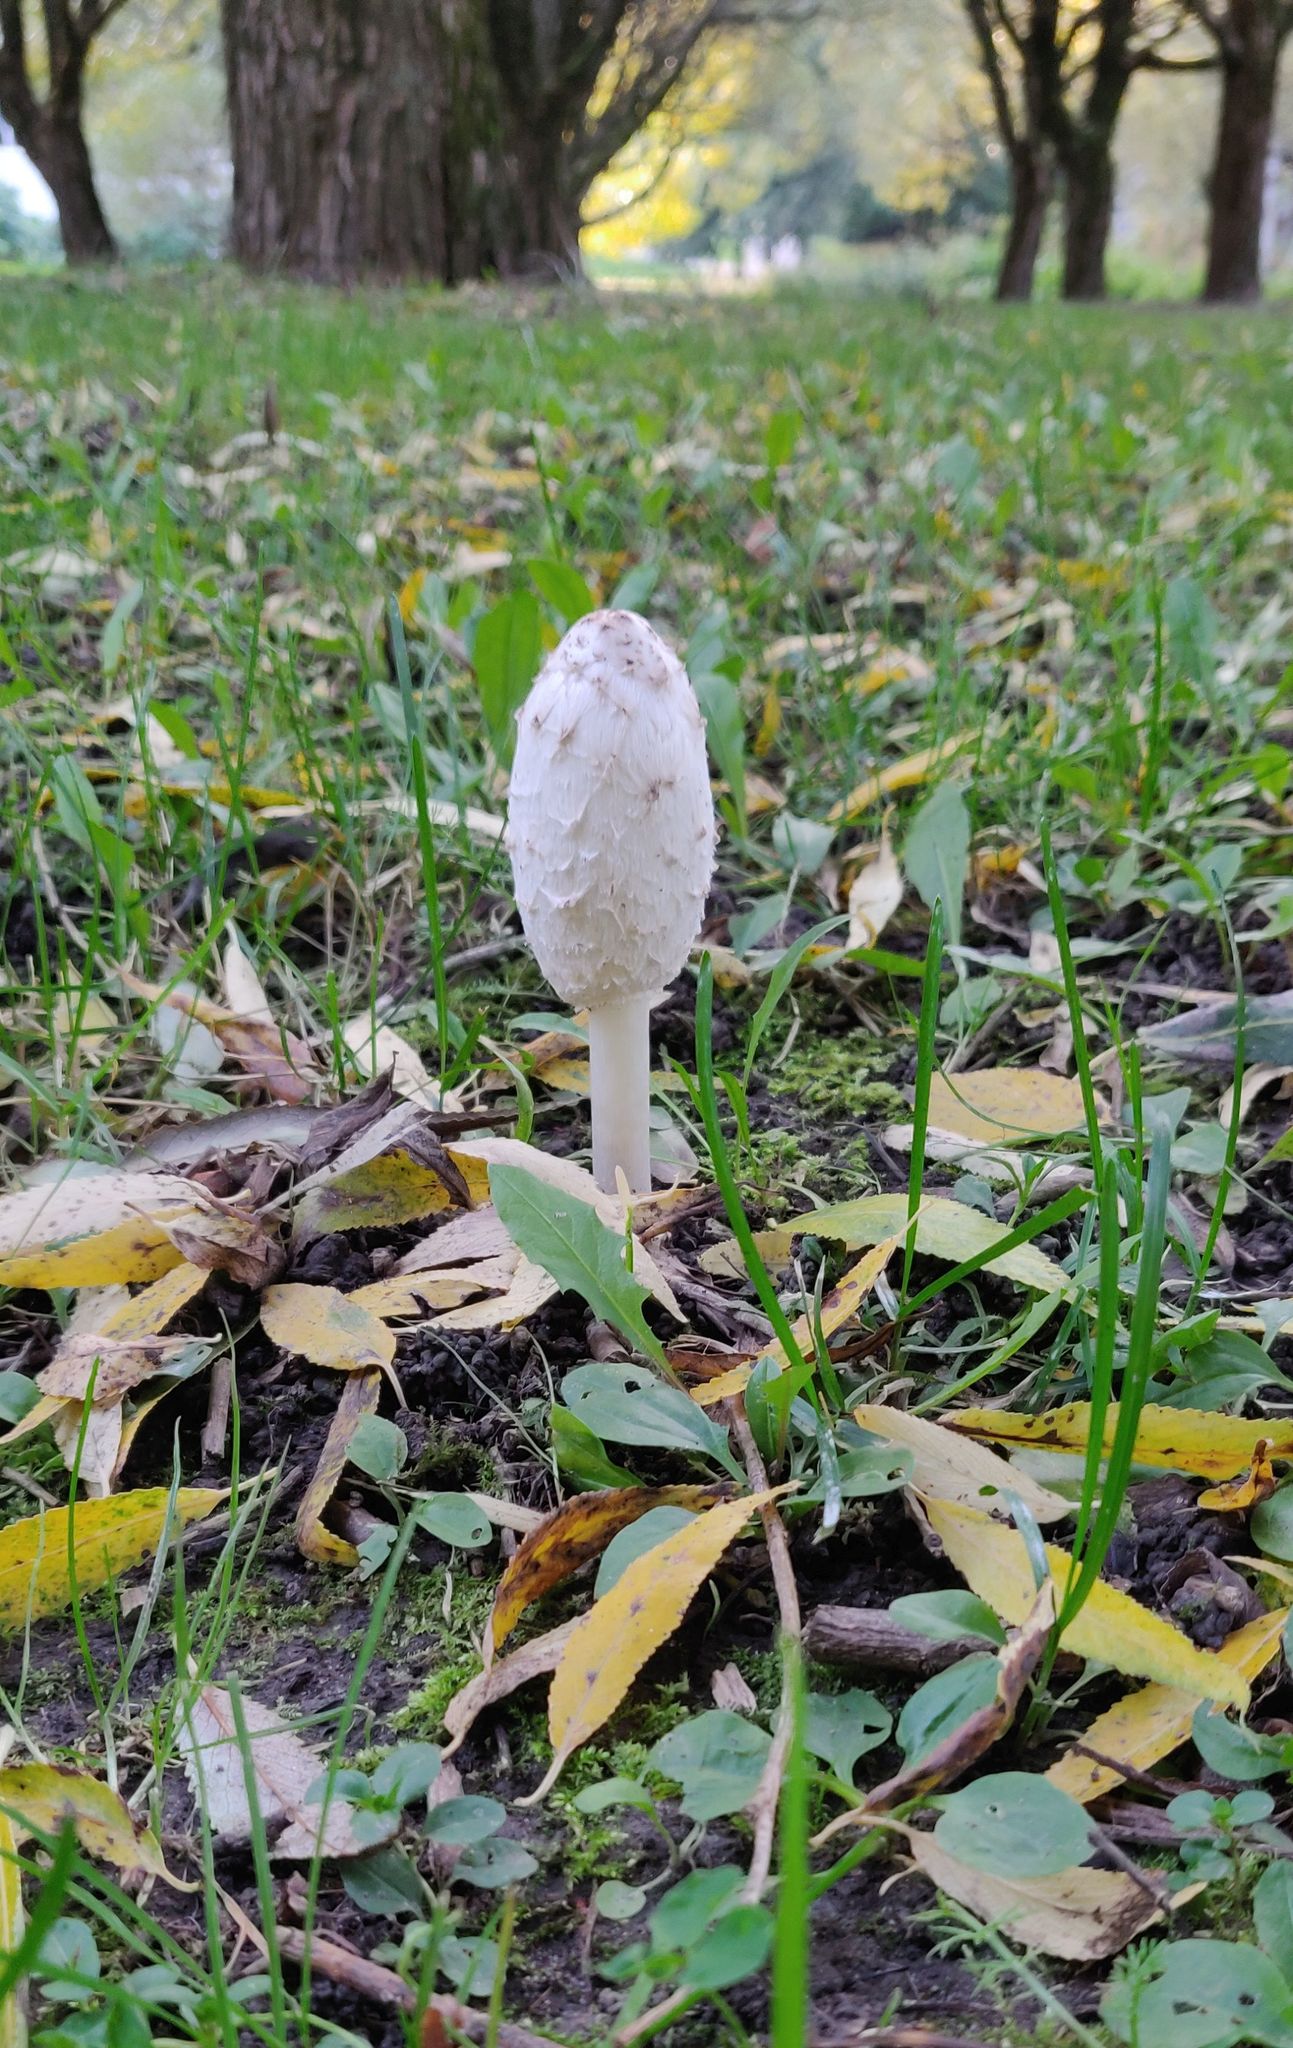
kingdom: Fungi
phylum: Basidiomycota
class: Agaricomycetes
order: Agaricales
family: Agaricaceae
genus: Coprinus
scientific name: Coprinus comatus
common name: Lawyer's wig
